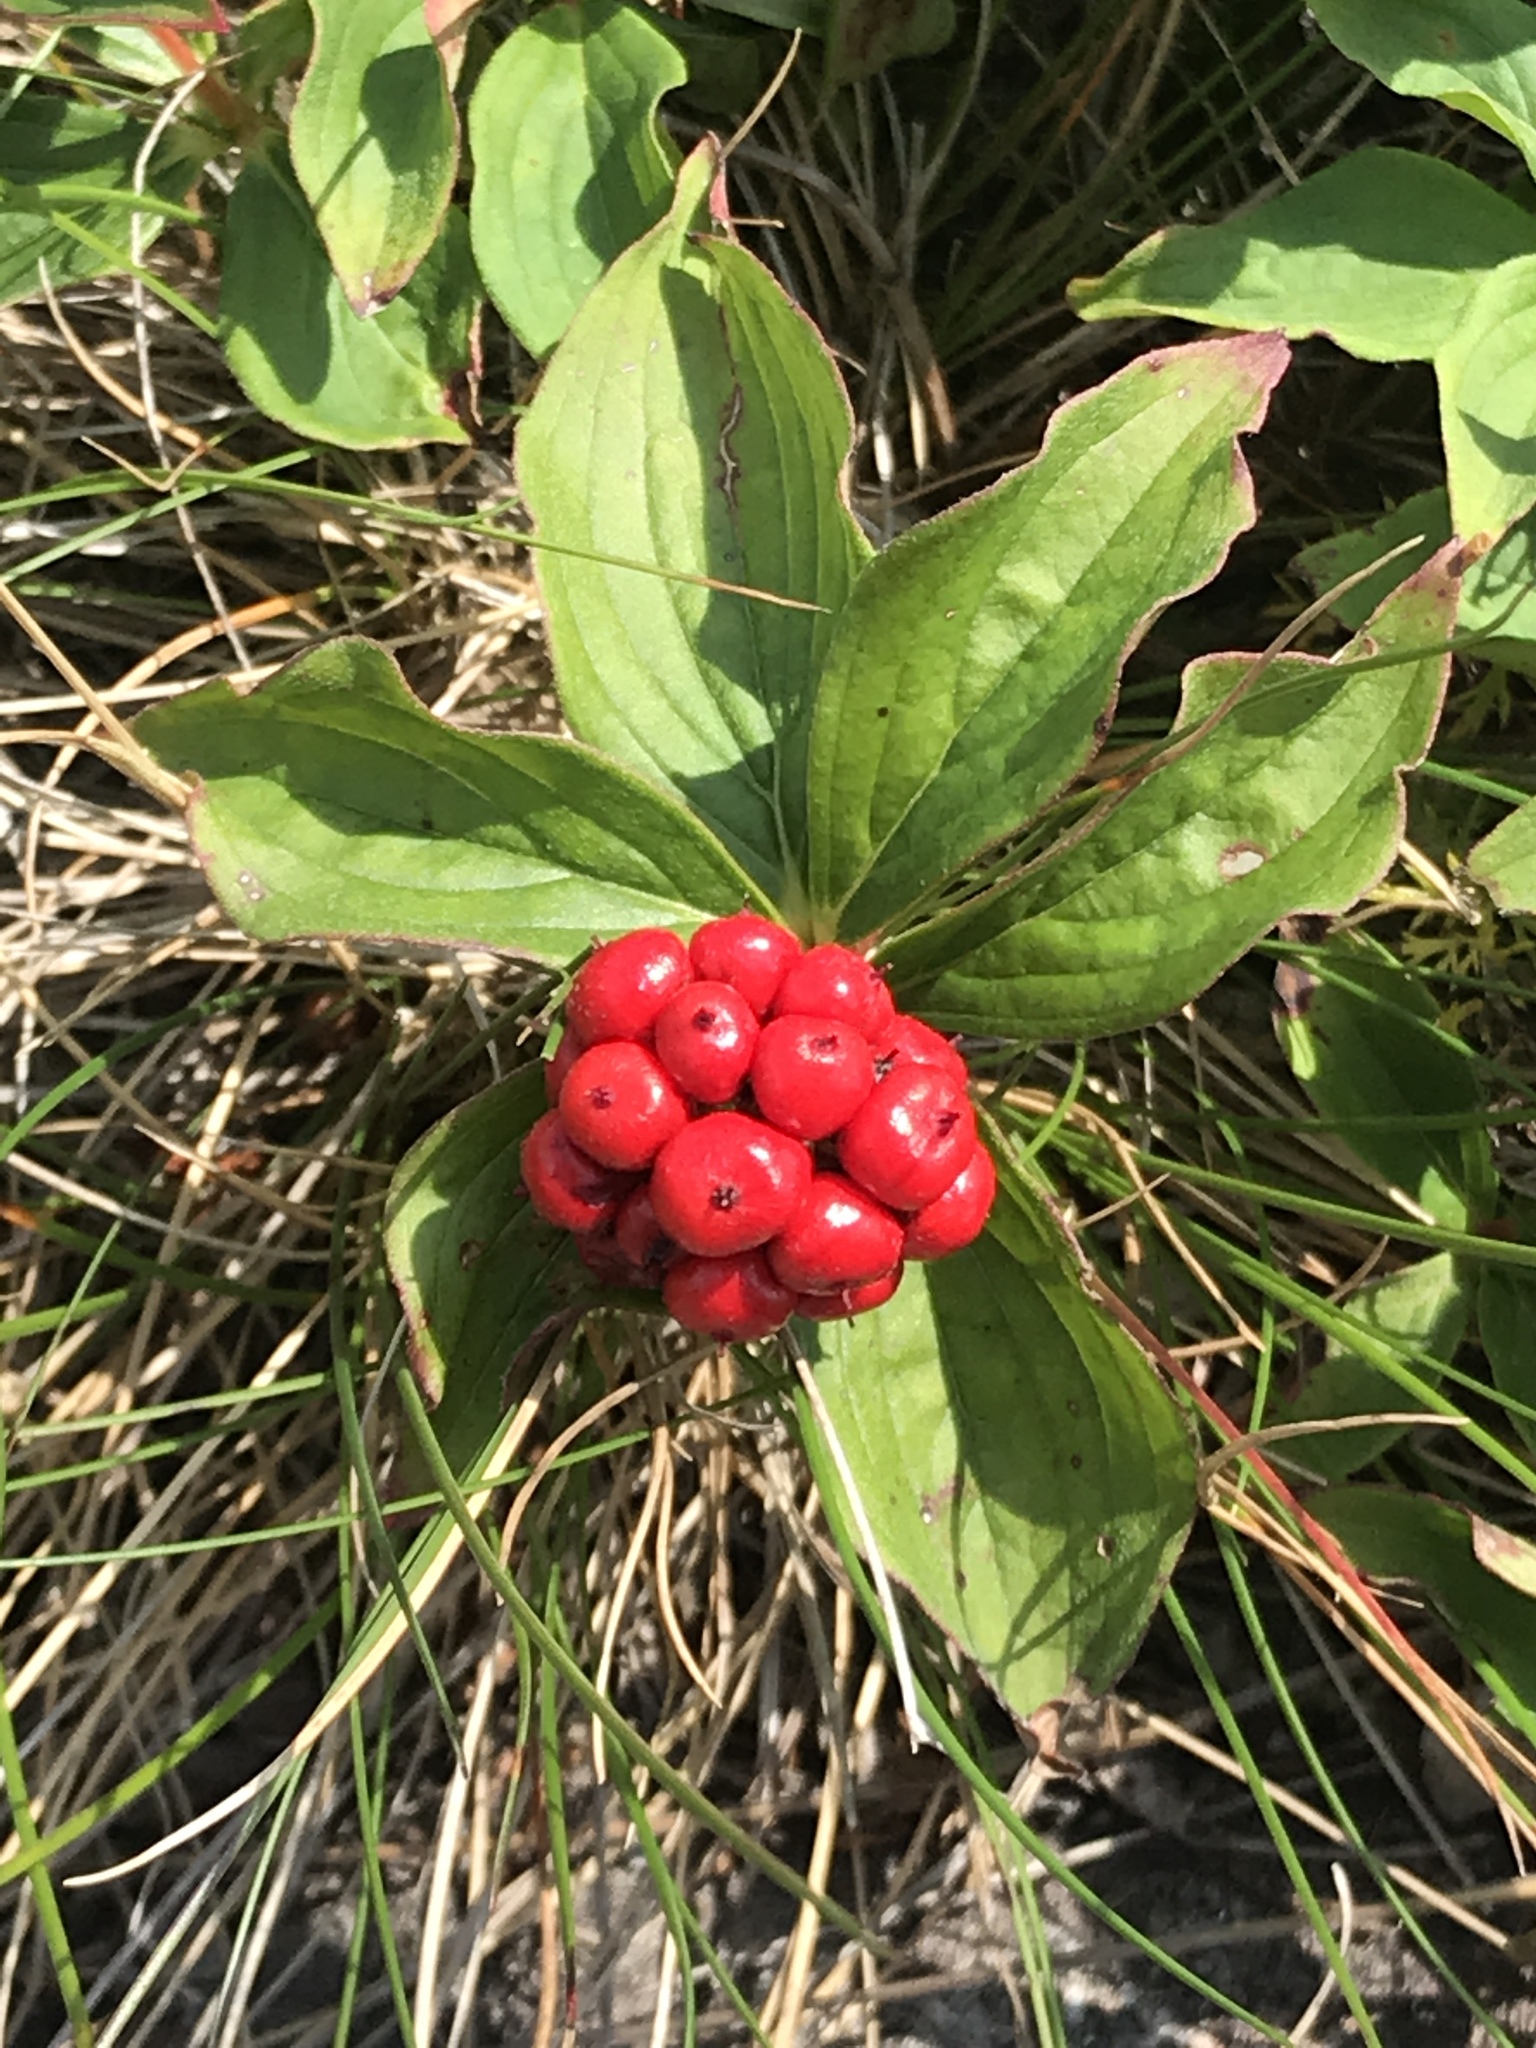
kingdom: Plantae
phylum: Tracheophyta
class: Magnoliopsida
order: Cornales
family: Cornaceae
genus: Cornus
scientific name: Cornus canadensis
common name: Creeping dogwood
